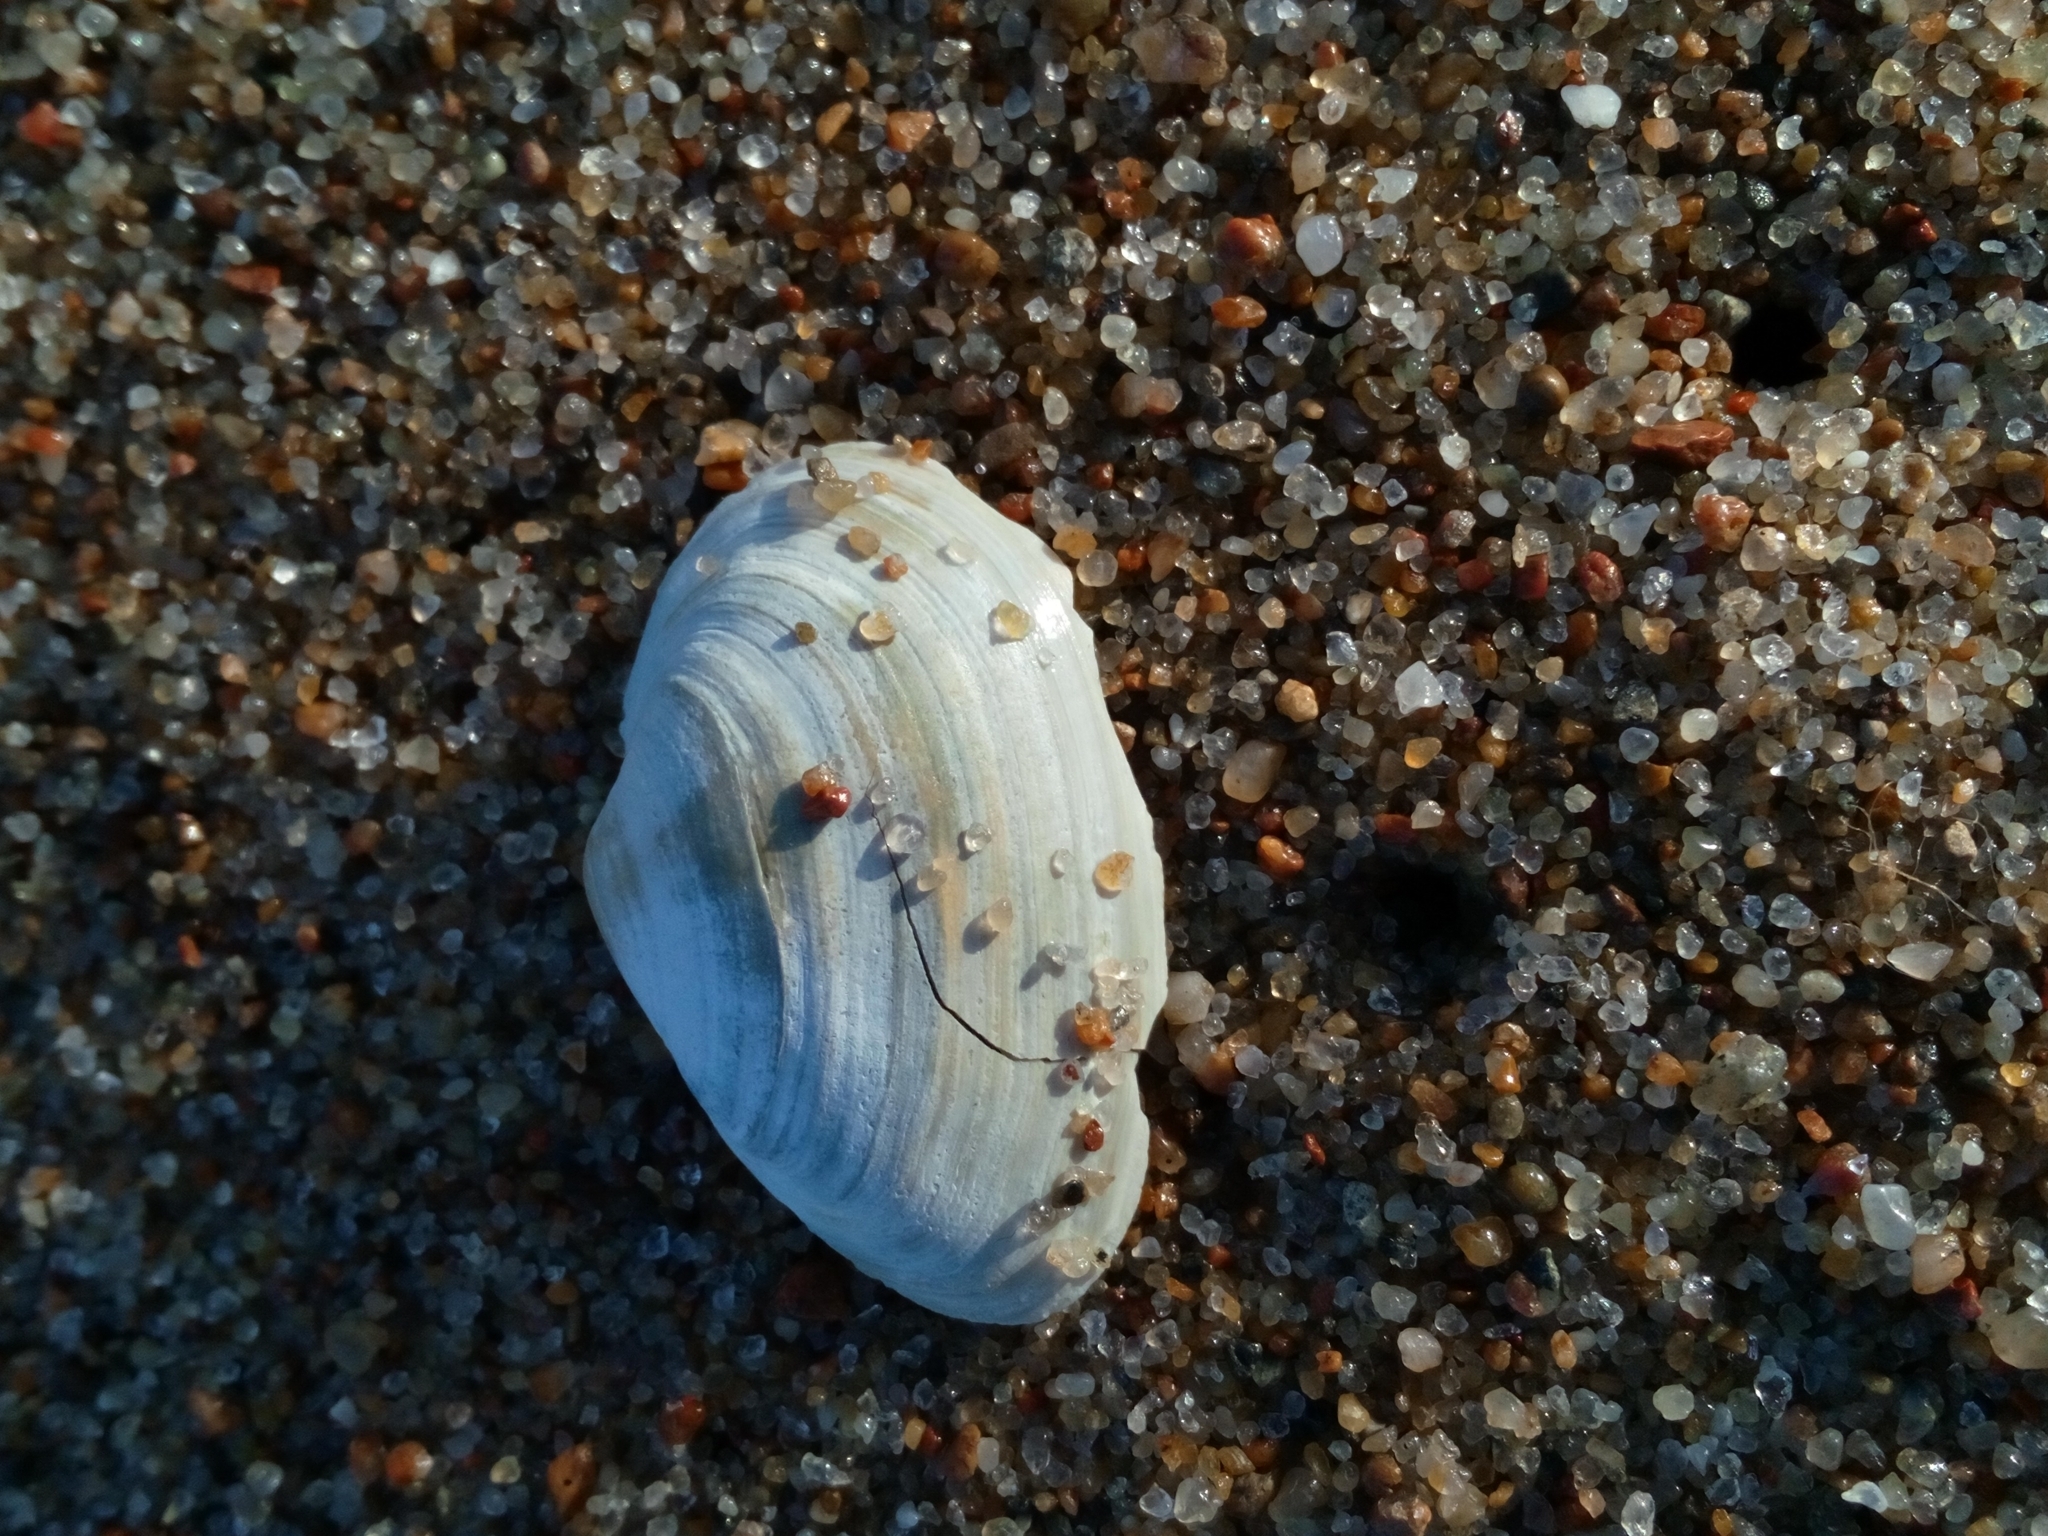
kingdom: Animalia
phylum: Mollusca
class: Bivalvia
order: Myida
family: Myidae
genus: Mya
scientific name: Mya arenaria
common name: Soft-shelled clam
